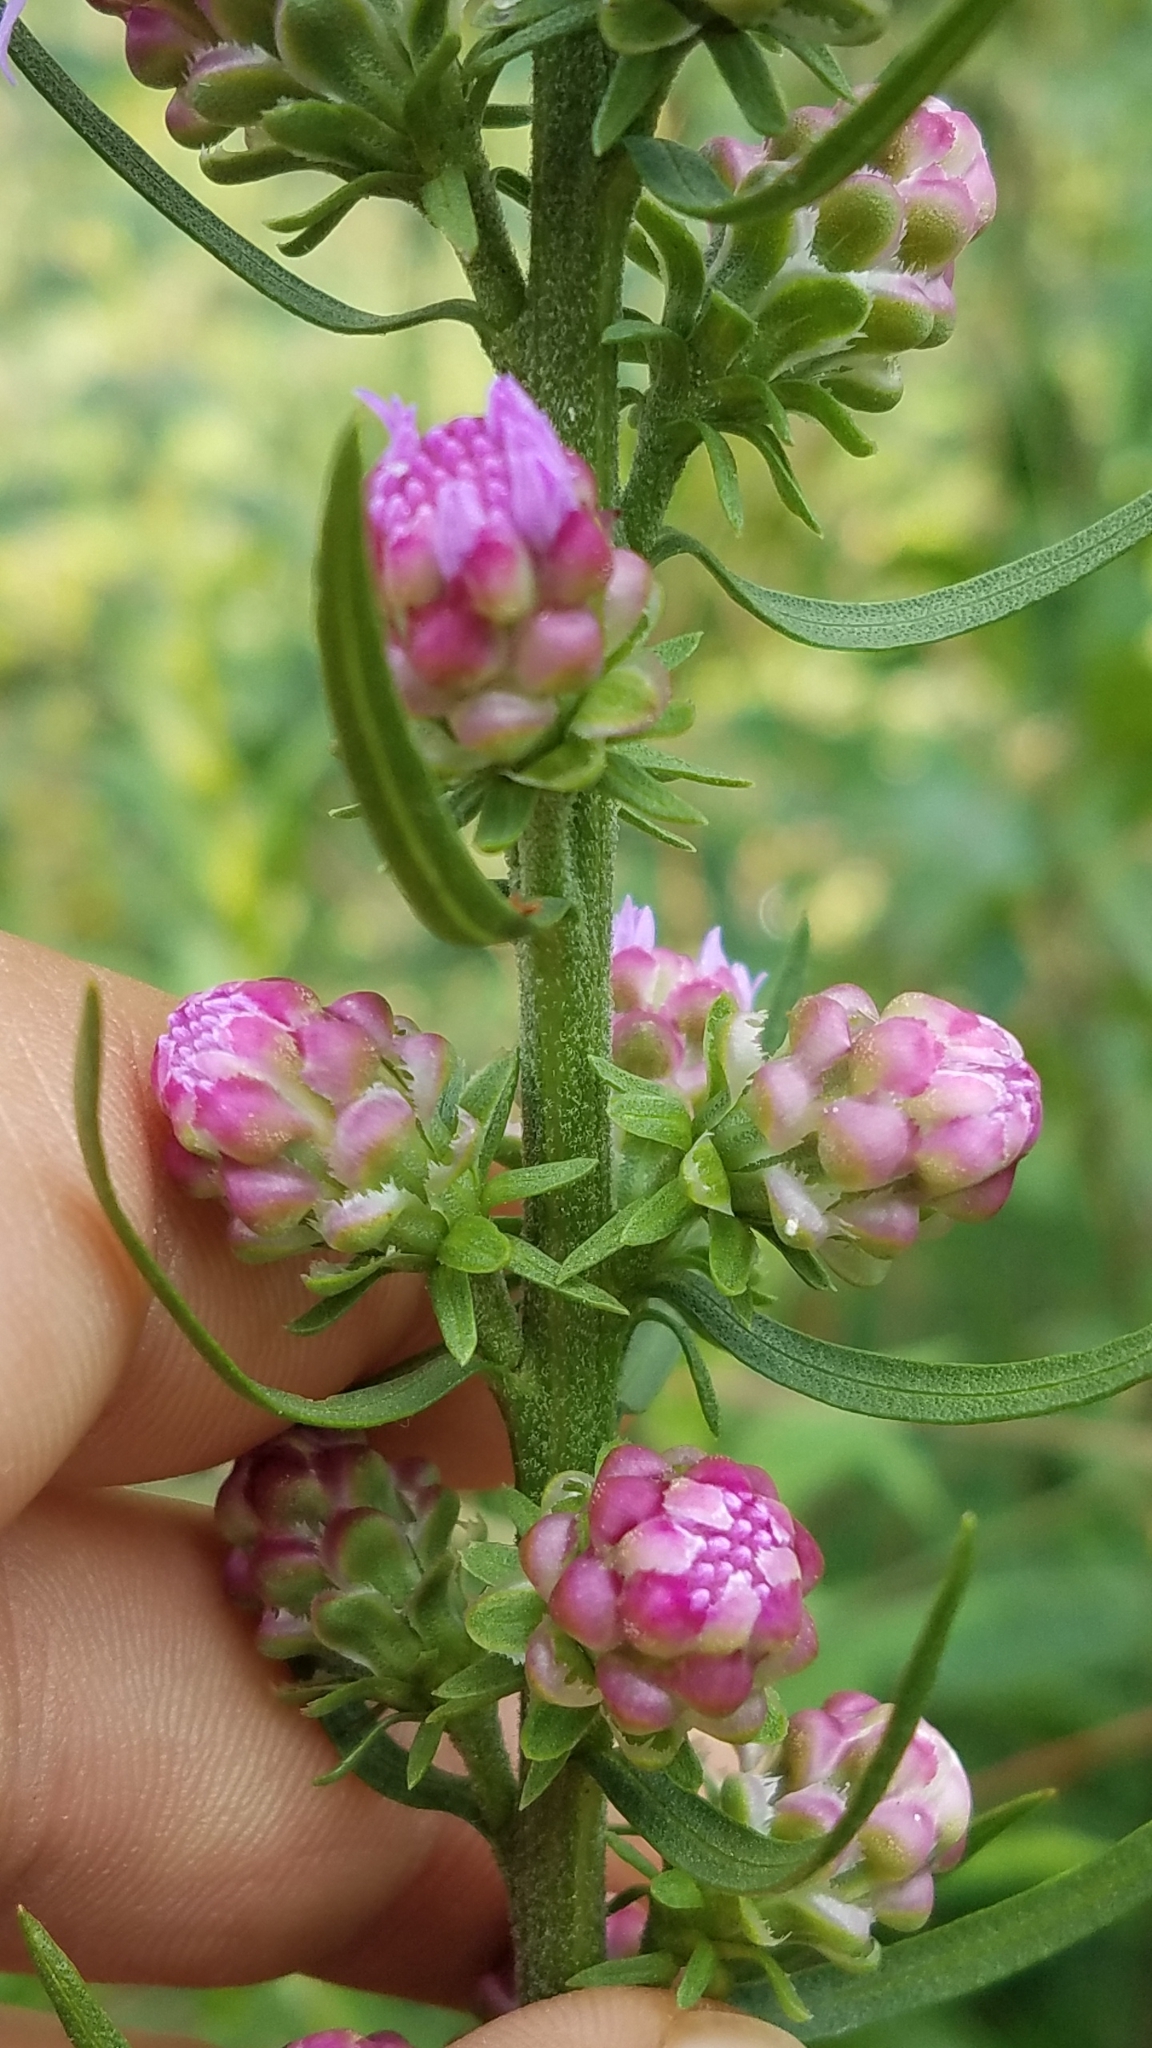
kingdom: Plantae
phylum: Tracheophyta
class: Magnoliopsida
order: Asterales
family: Asteraceae
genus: Liatris
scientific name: Liatris aspera
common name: Lacerate blazing-star
